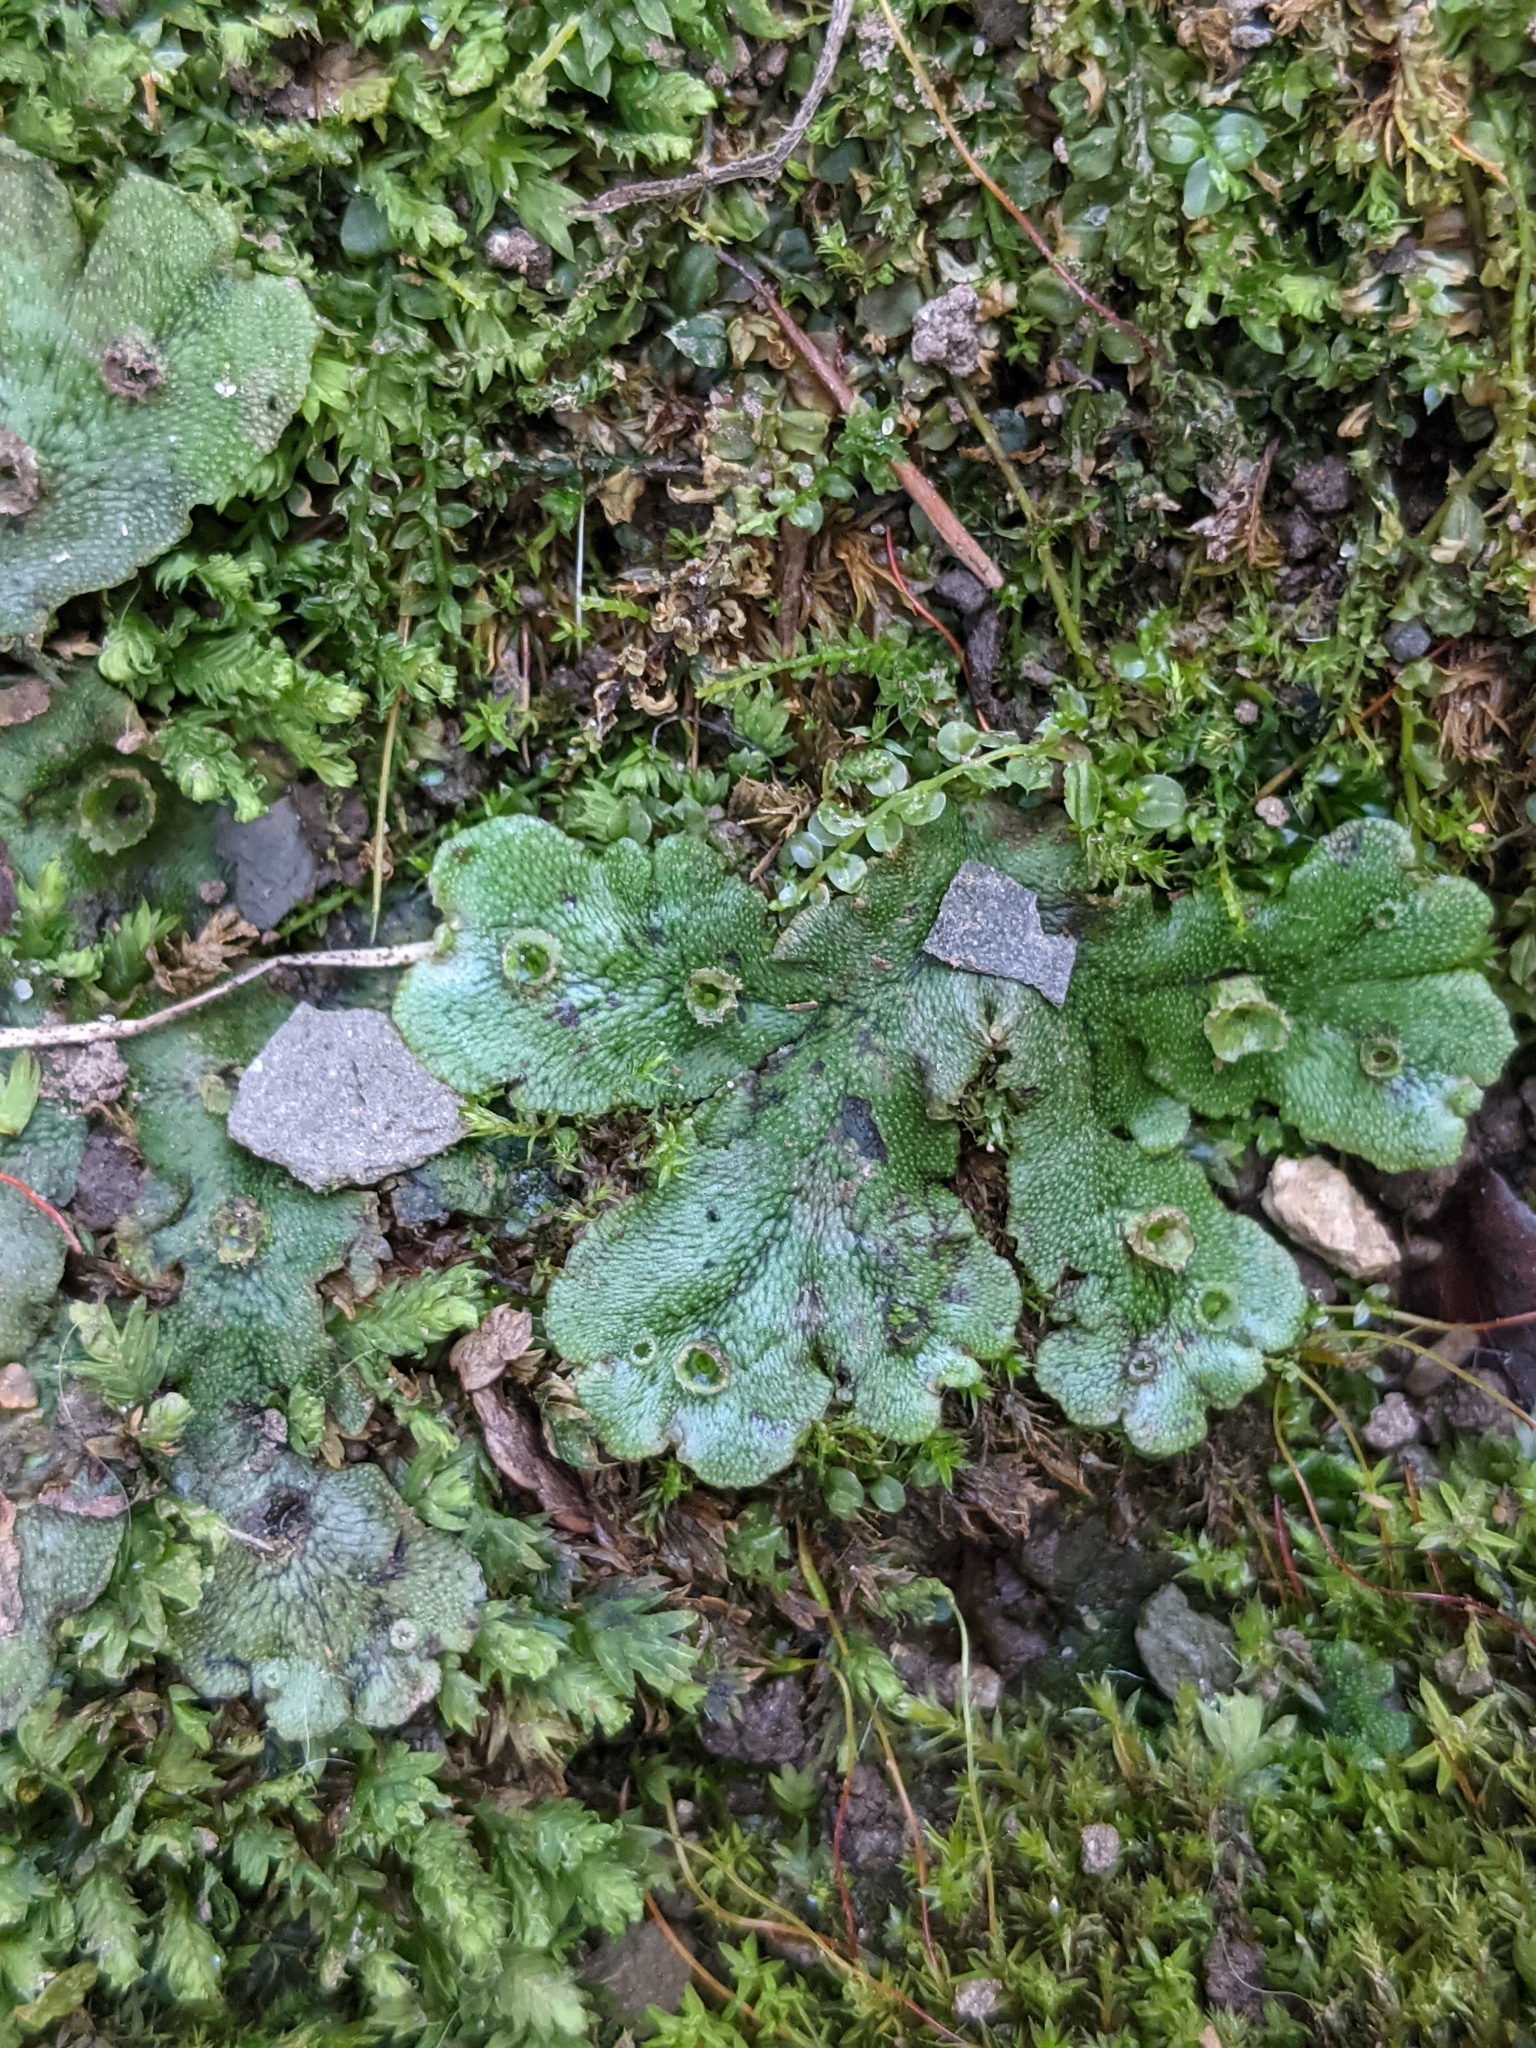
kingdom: Plantae
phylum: Marchantiophyta
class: Marchantiopsida
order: Marchantiales
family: Marchantiaceae
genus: Marchantia
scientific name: Marchantia polymorpha
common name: Common liverwort
